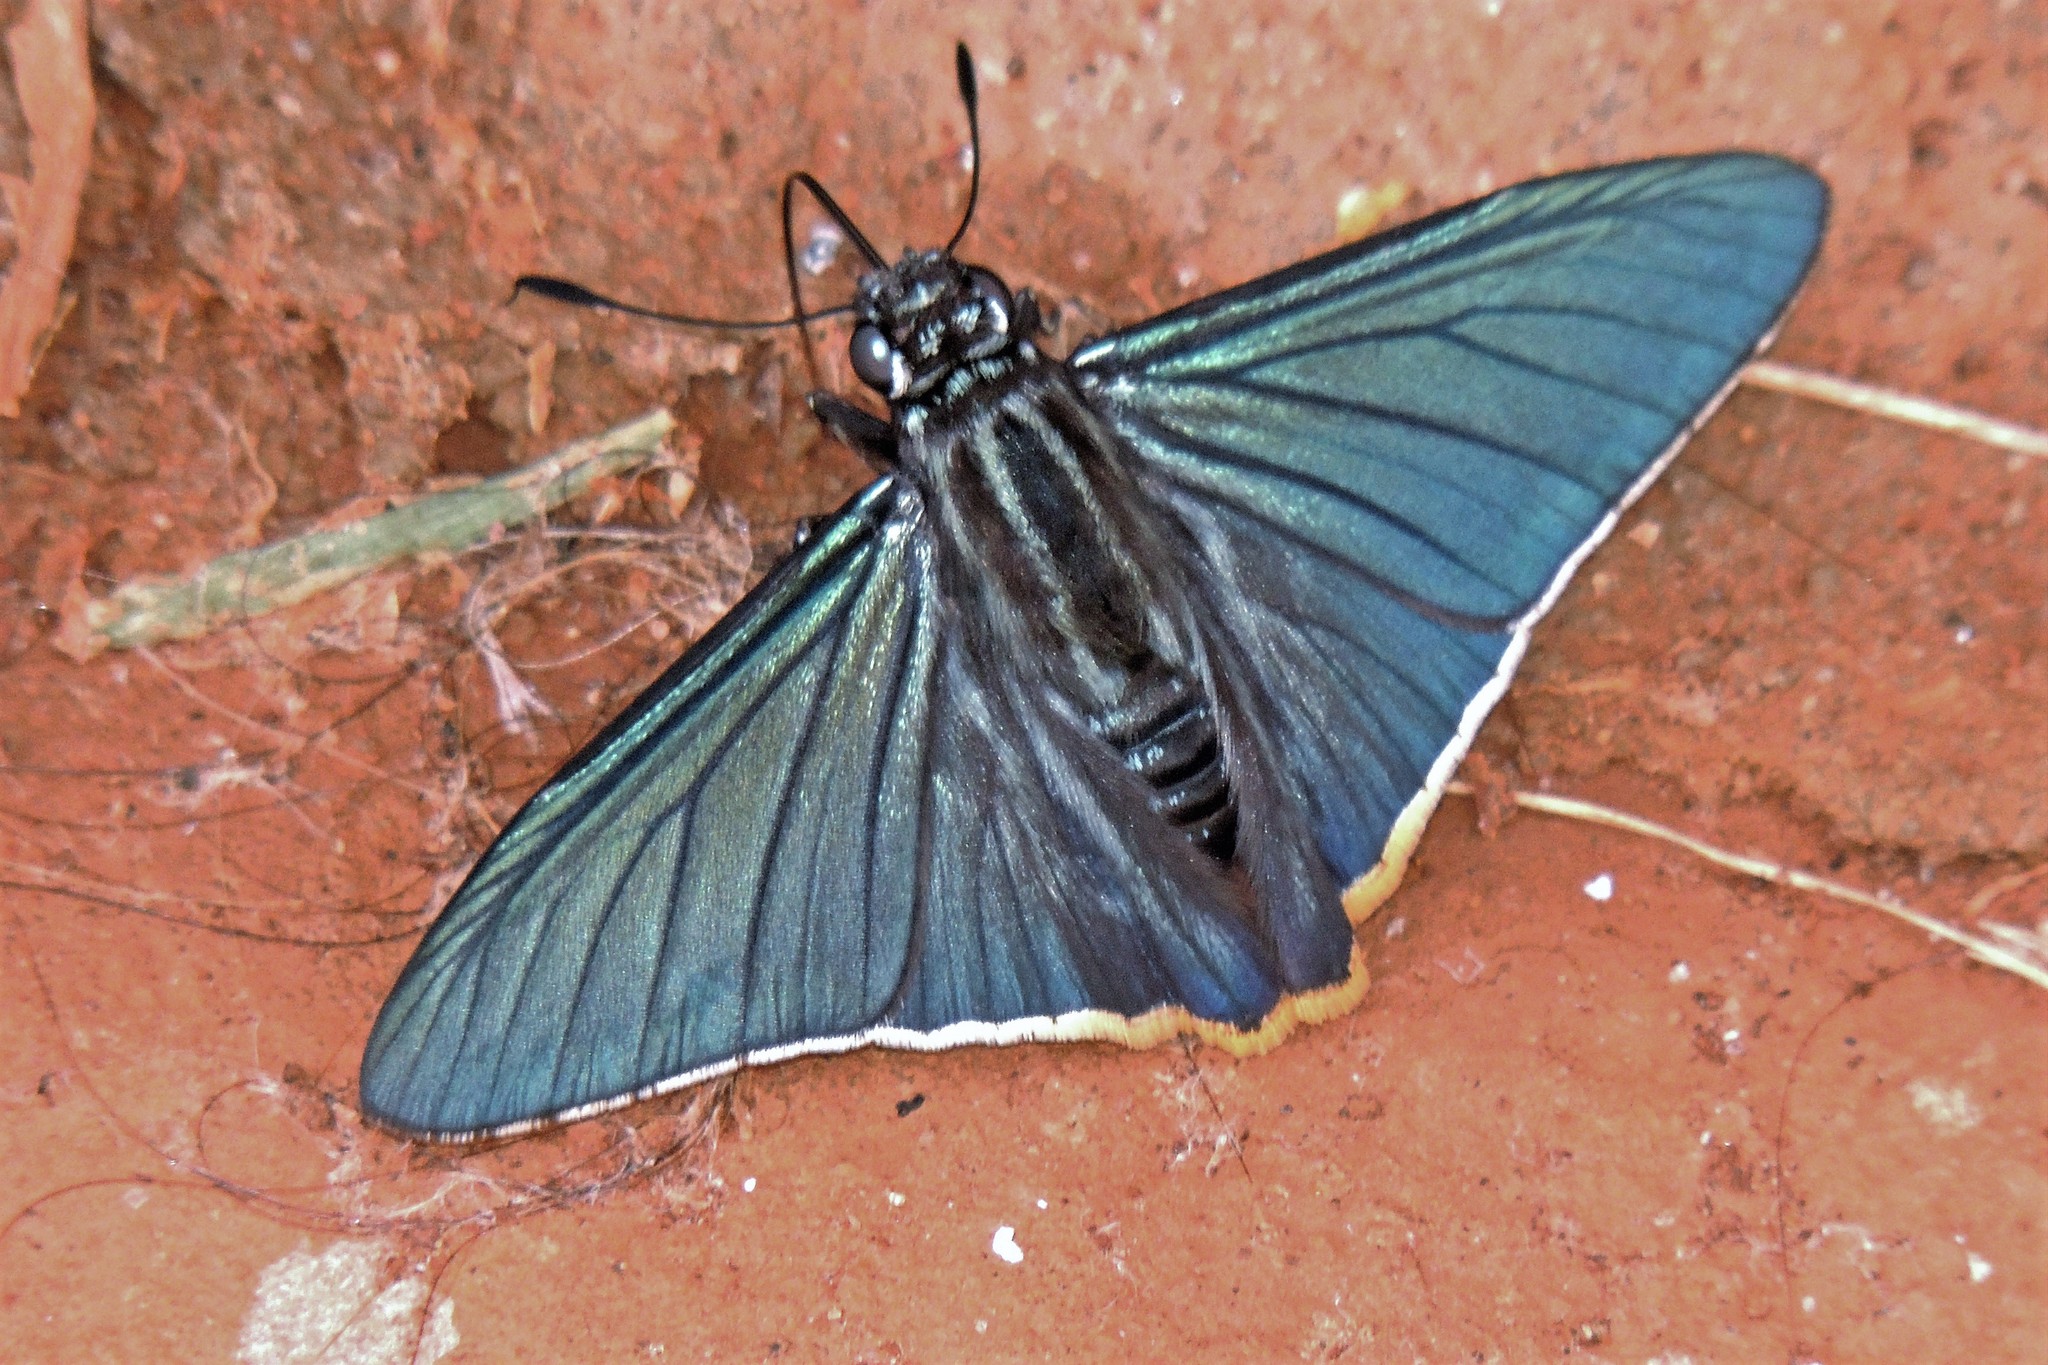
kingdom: Animalia
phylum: Arthropoda
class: Insecta
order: Lepidoptera
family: Hesperiidae
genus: Phocides
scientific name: Phocides charon
